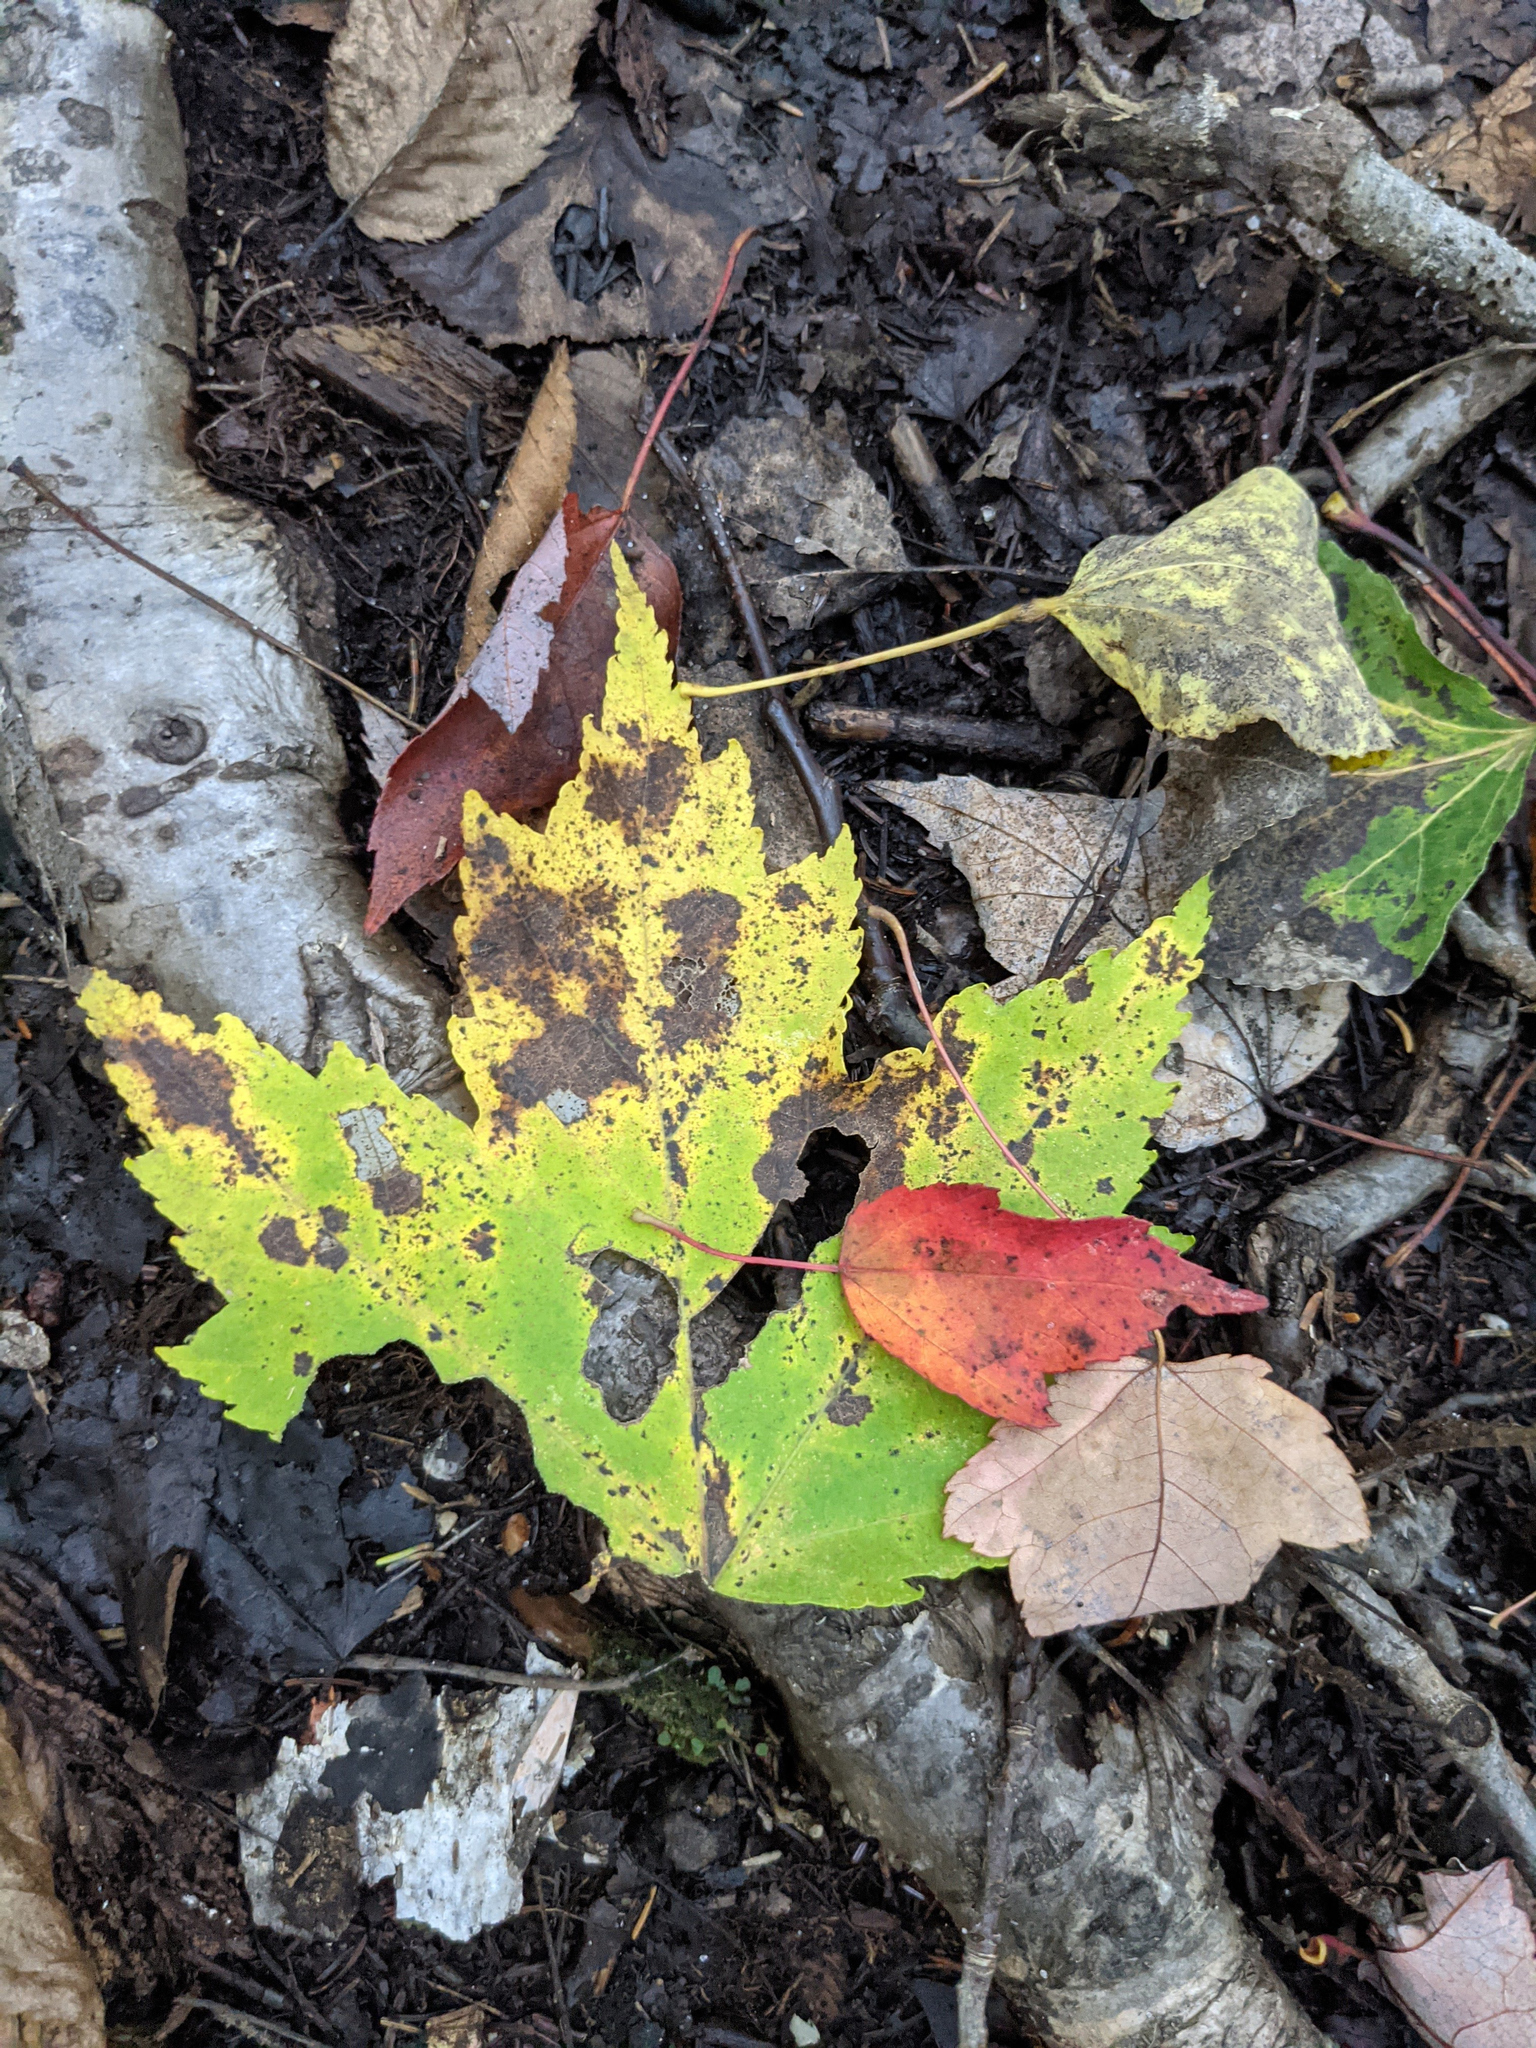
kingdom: Plantae
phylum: Tracheophyta
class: Magnoliopsida
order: Sapindales
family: Sapindaceae
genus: Acer
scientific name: Acer rubrum
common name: Red maple
